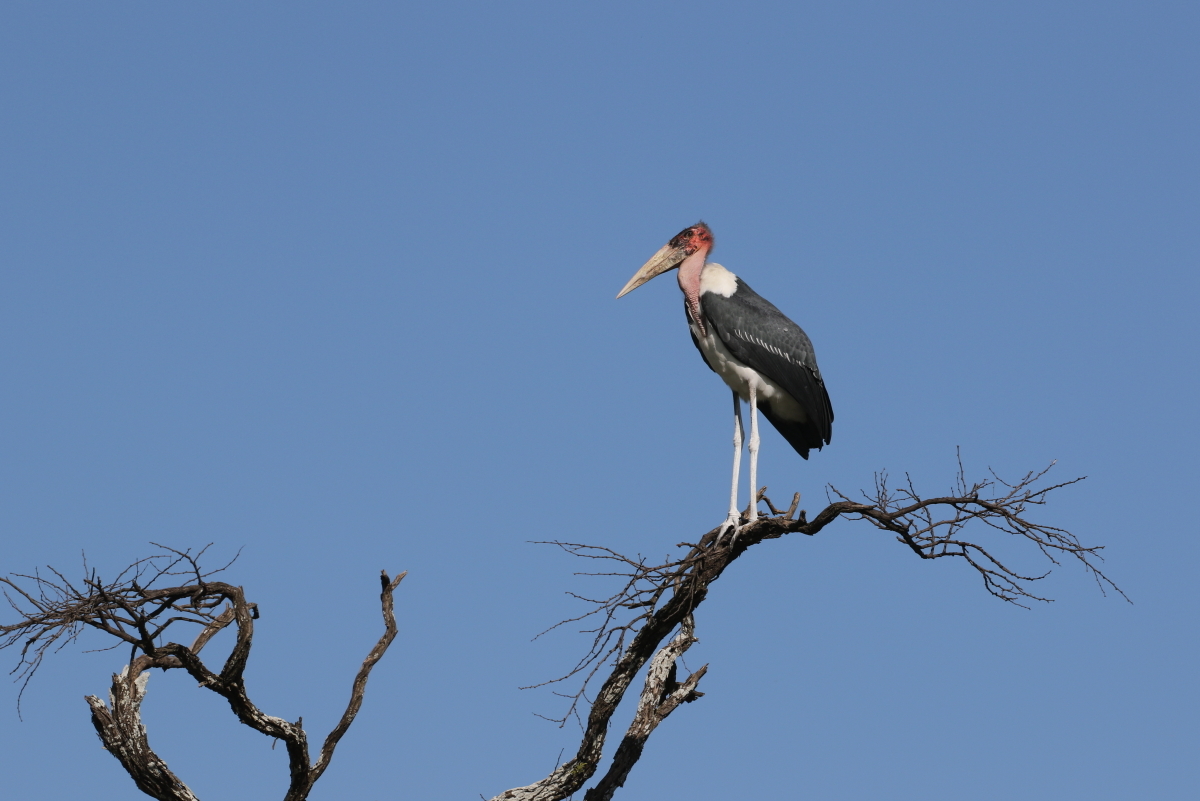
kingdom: Animalia
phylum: Chordata
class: Aves
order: Ciconiiformes
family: Ciconiidae
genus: Leptoptilos
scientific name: Leptoptilos crumenifer
